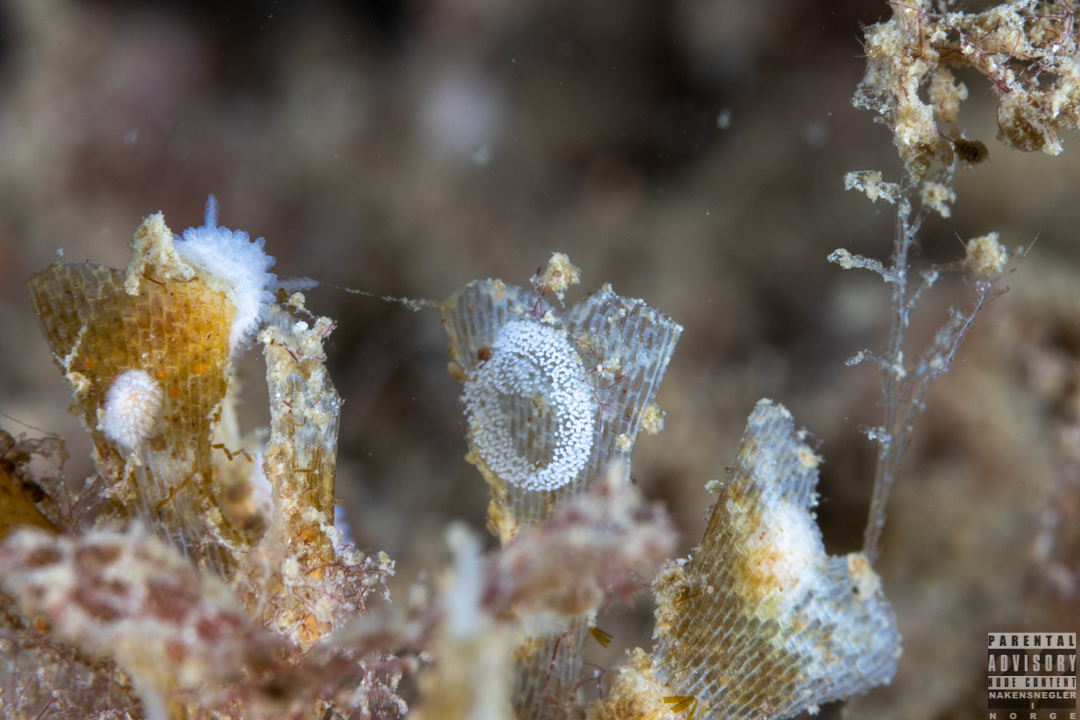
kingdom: Animalia
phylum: Mollusca
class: Gastropoda
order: Nudibranchia
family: Onchidorididae
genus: Onchidoris
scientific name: Onchidoris muricata
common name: Rough doris
